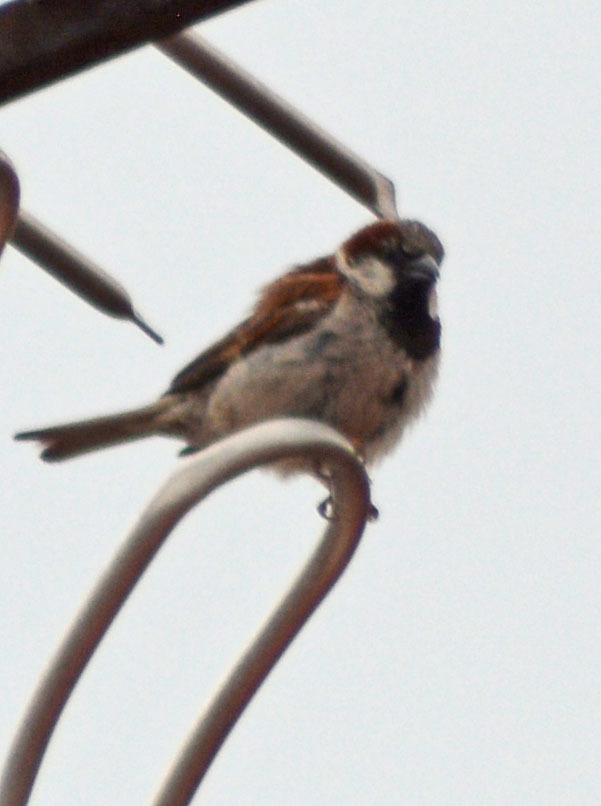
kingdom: Animalia
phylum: Chordata
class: Aves
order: Passeriformes
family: Passeridae
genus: Passer
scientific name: Passer domesticus
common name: House sparrow
